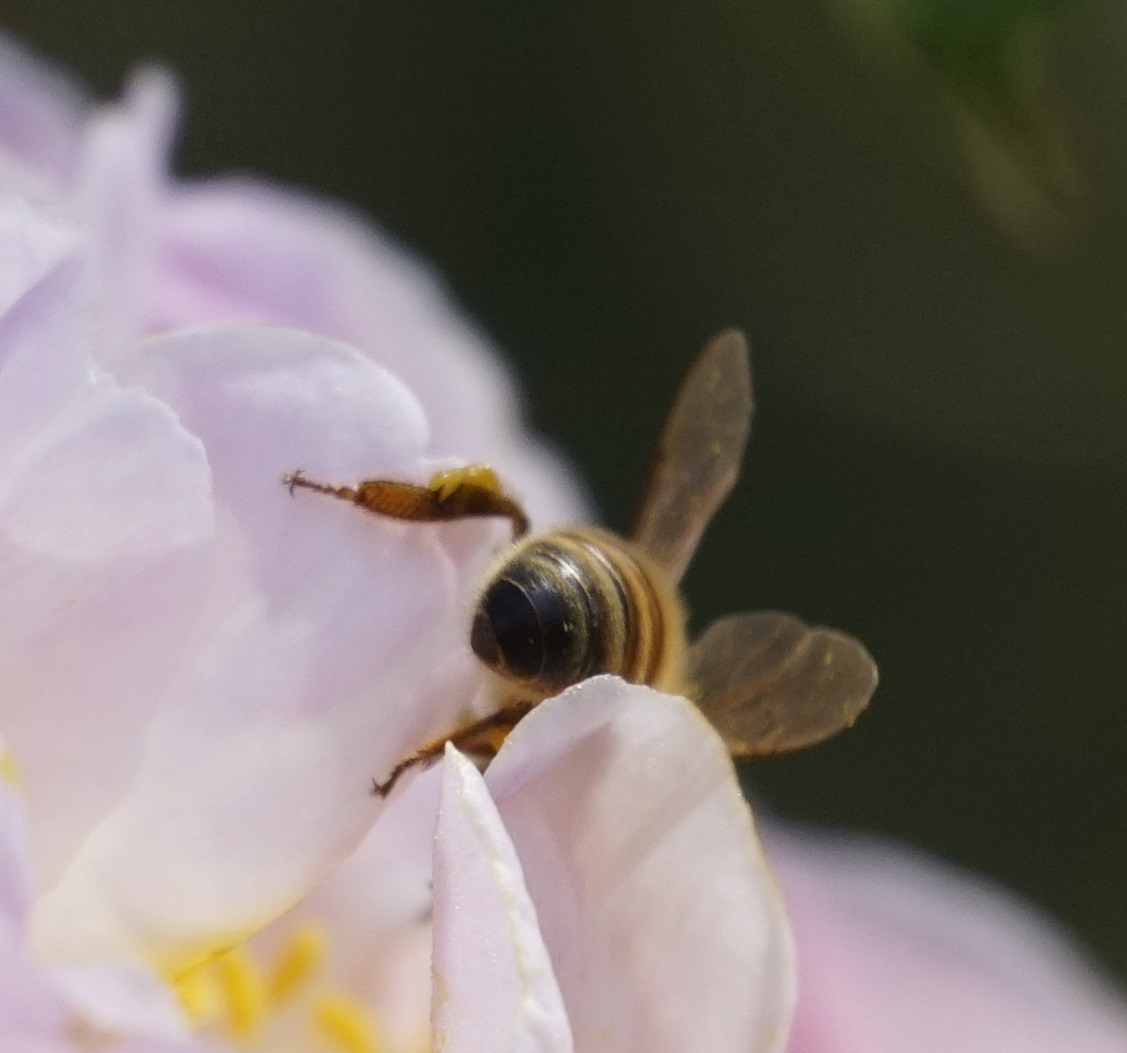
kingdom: Animalia
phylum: Arthropoda
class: Insecta
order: Hymenoptera
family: Apidae
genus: Apis
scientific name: Apis mellifera
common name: Honey bee
